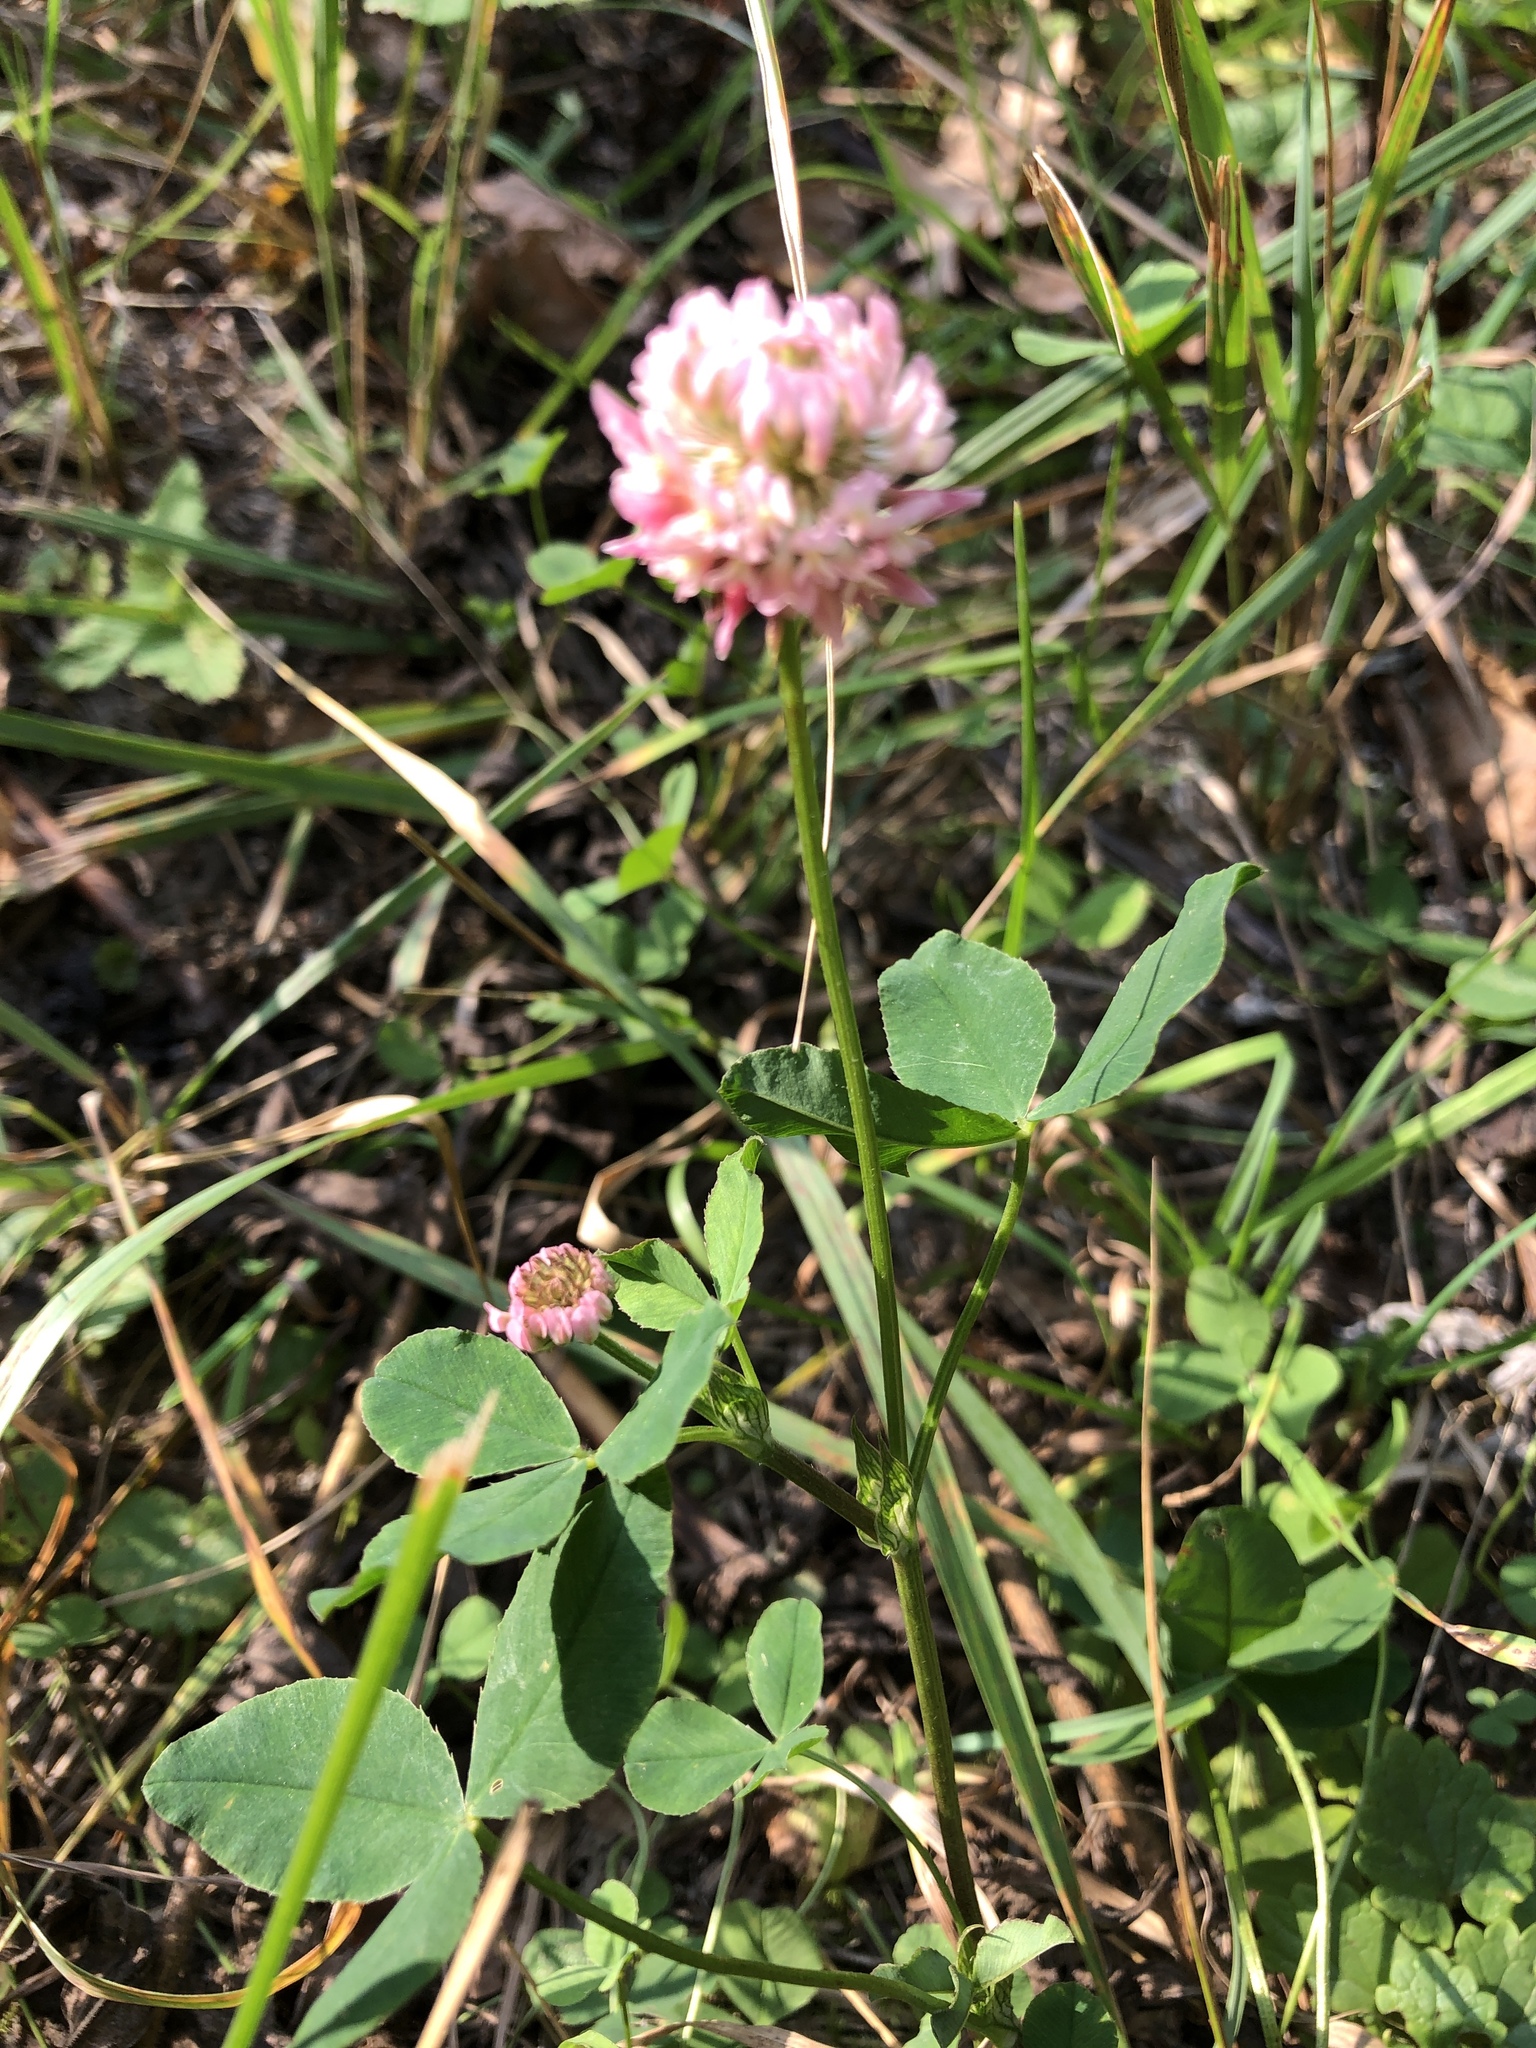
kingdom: Plantae
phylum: Tracheophyta
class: Magnoliopsida
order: Fabales
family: Fabaceae
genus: Trifolium
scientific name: Trifolium hybridum
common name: Alsike clover
